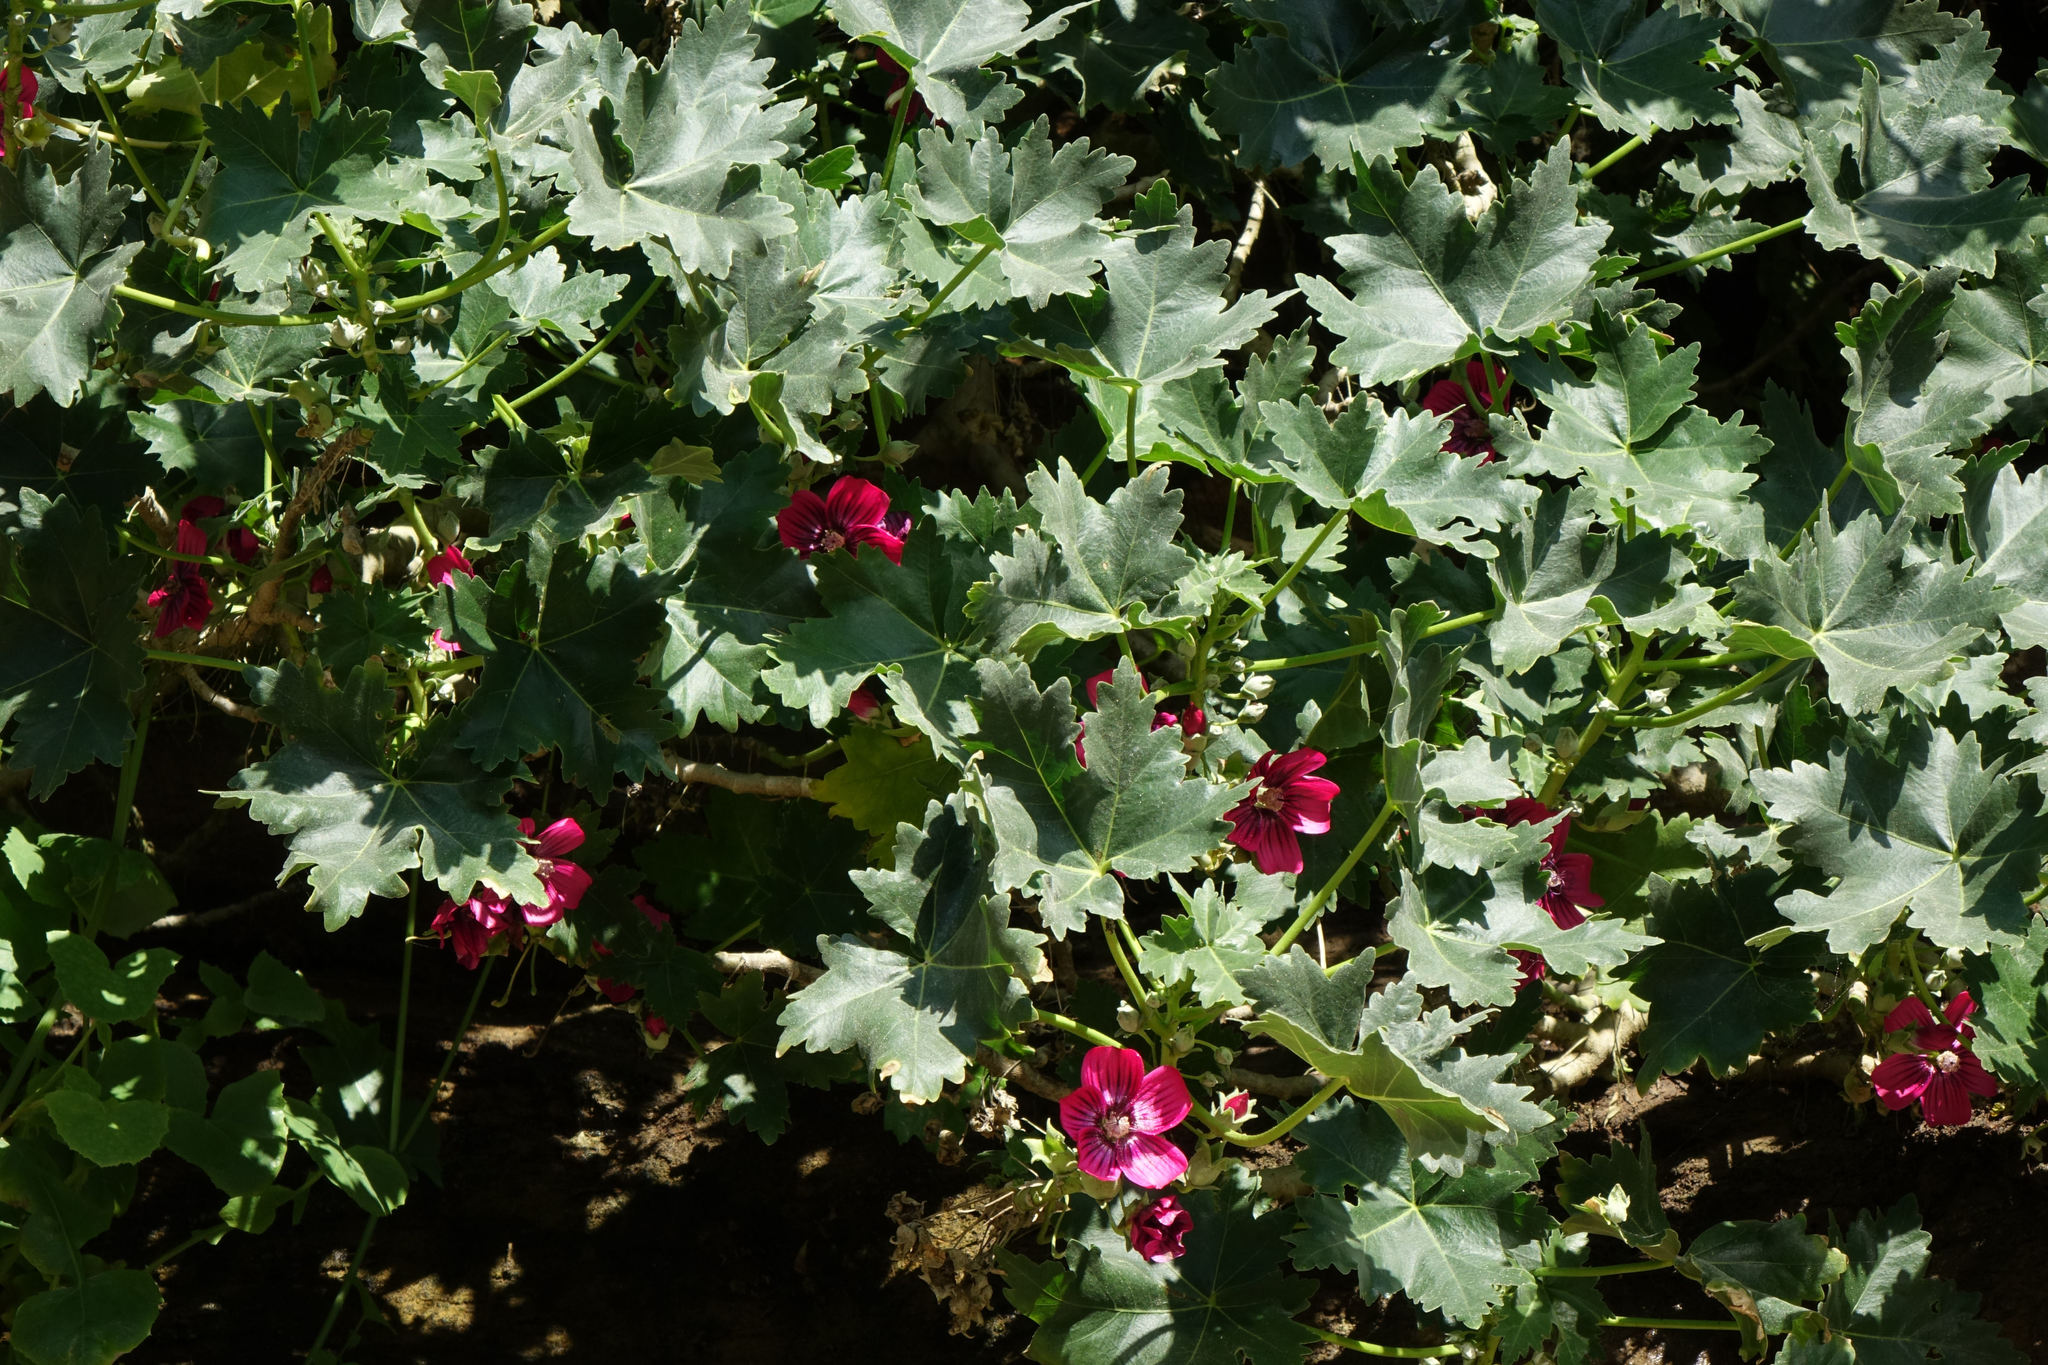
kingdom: Plantae
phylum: Tracheophyta
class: Magnoliopsida
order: Malvales
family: Malvaceae
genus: Malva
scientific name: Malva assurgentiflora
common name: Island mallow
